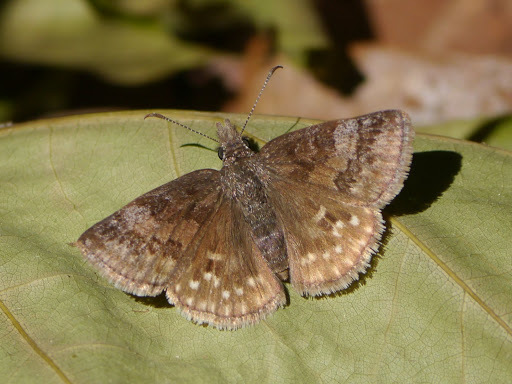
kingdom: Animalia
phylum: Arthropoda
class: Insecta
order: Lepidoptera
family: Hesperiidae
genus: Erynnis
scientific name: Erynnis icelus
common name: Dreamy duskywing
